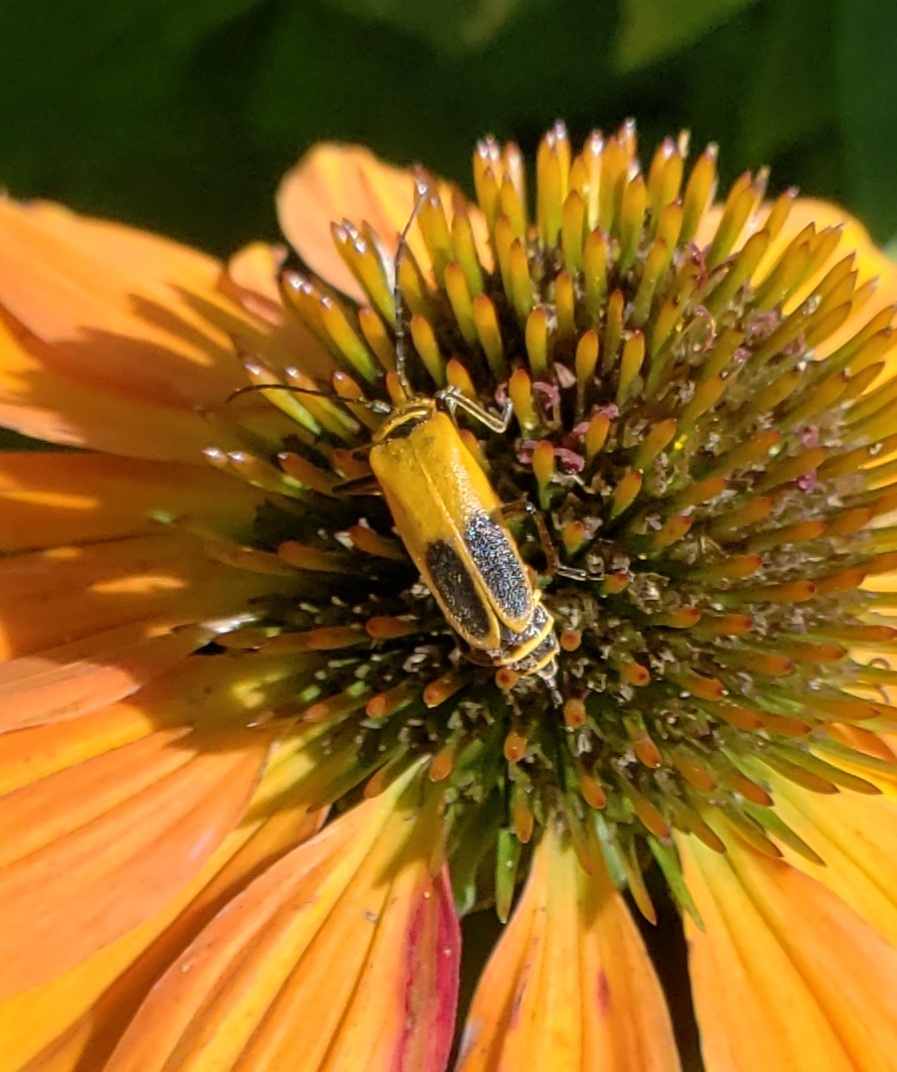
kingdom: Animalia
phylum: Arthropoda
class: Insecta
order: Coleoptera
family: Cantharidae
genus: Chauliognathus
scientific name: Chauliognathus pensylvanicus
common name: Goldenrod soldier beetle
